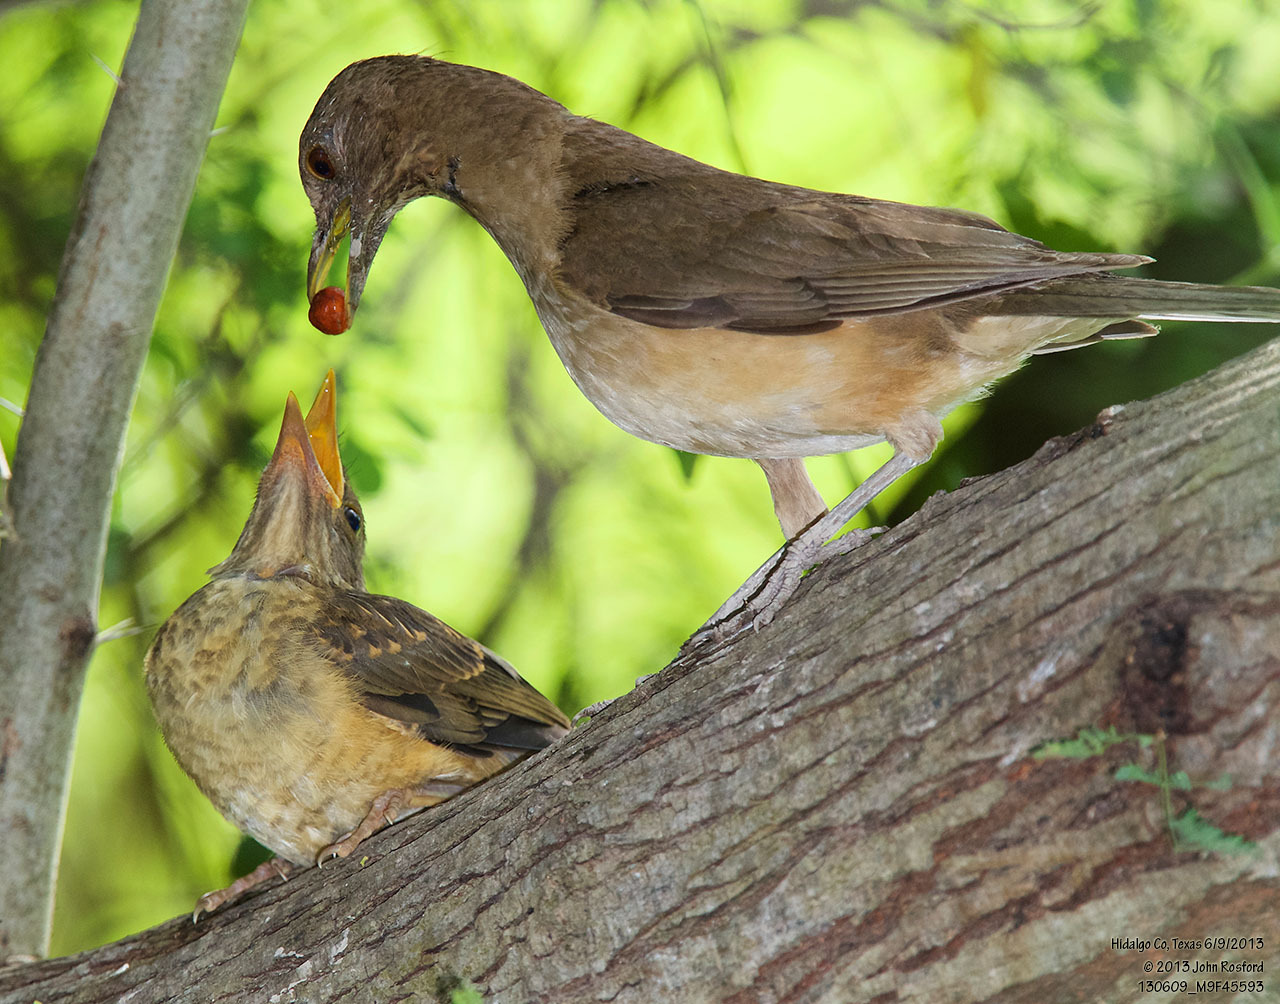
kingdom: Animalia
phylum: Chordata
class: Aves
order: Passeriformes
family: Turdidae
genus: Turdus
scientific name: Turdus grayi
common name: Clay-colored thrush
